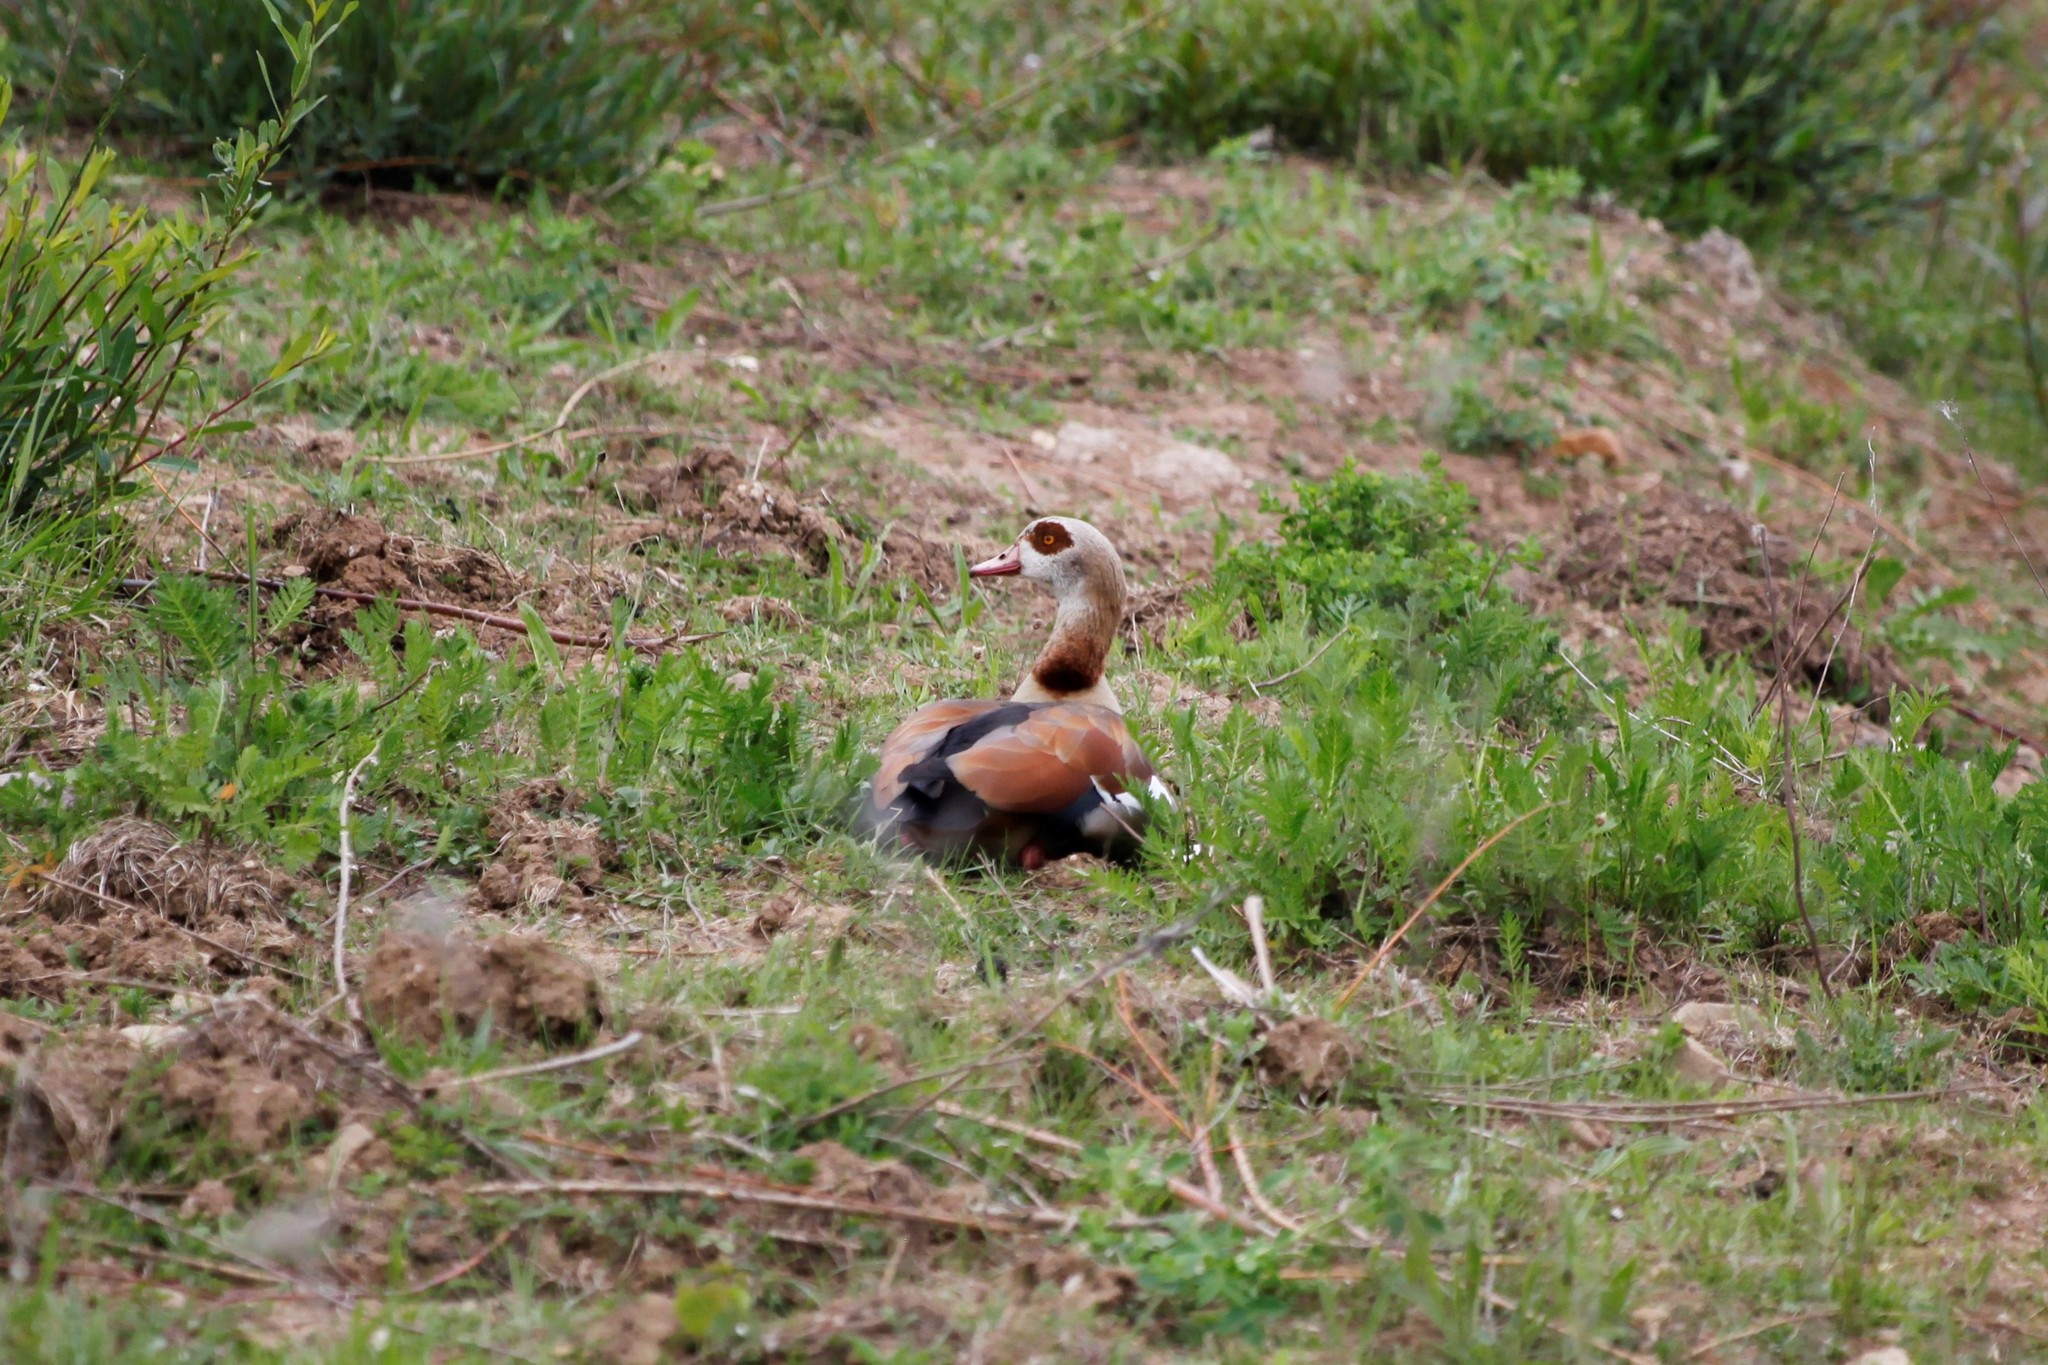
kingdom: Animalia
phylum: Chordata
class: Aves
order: Anseriformes
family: Anatidae
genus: Alopochen
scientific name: Alopochen aegyptiaca
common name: Egyptian goose
